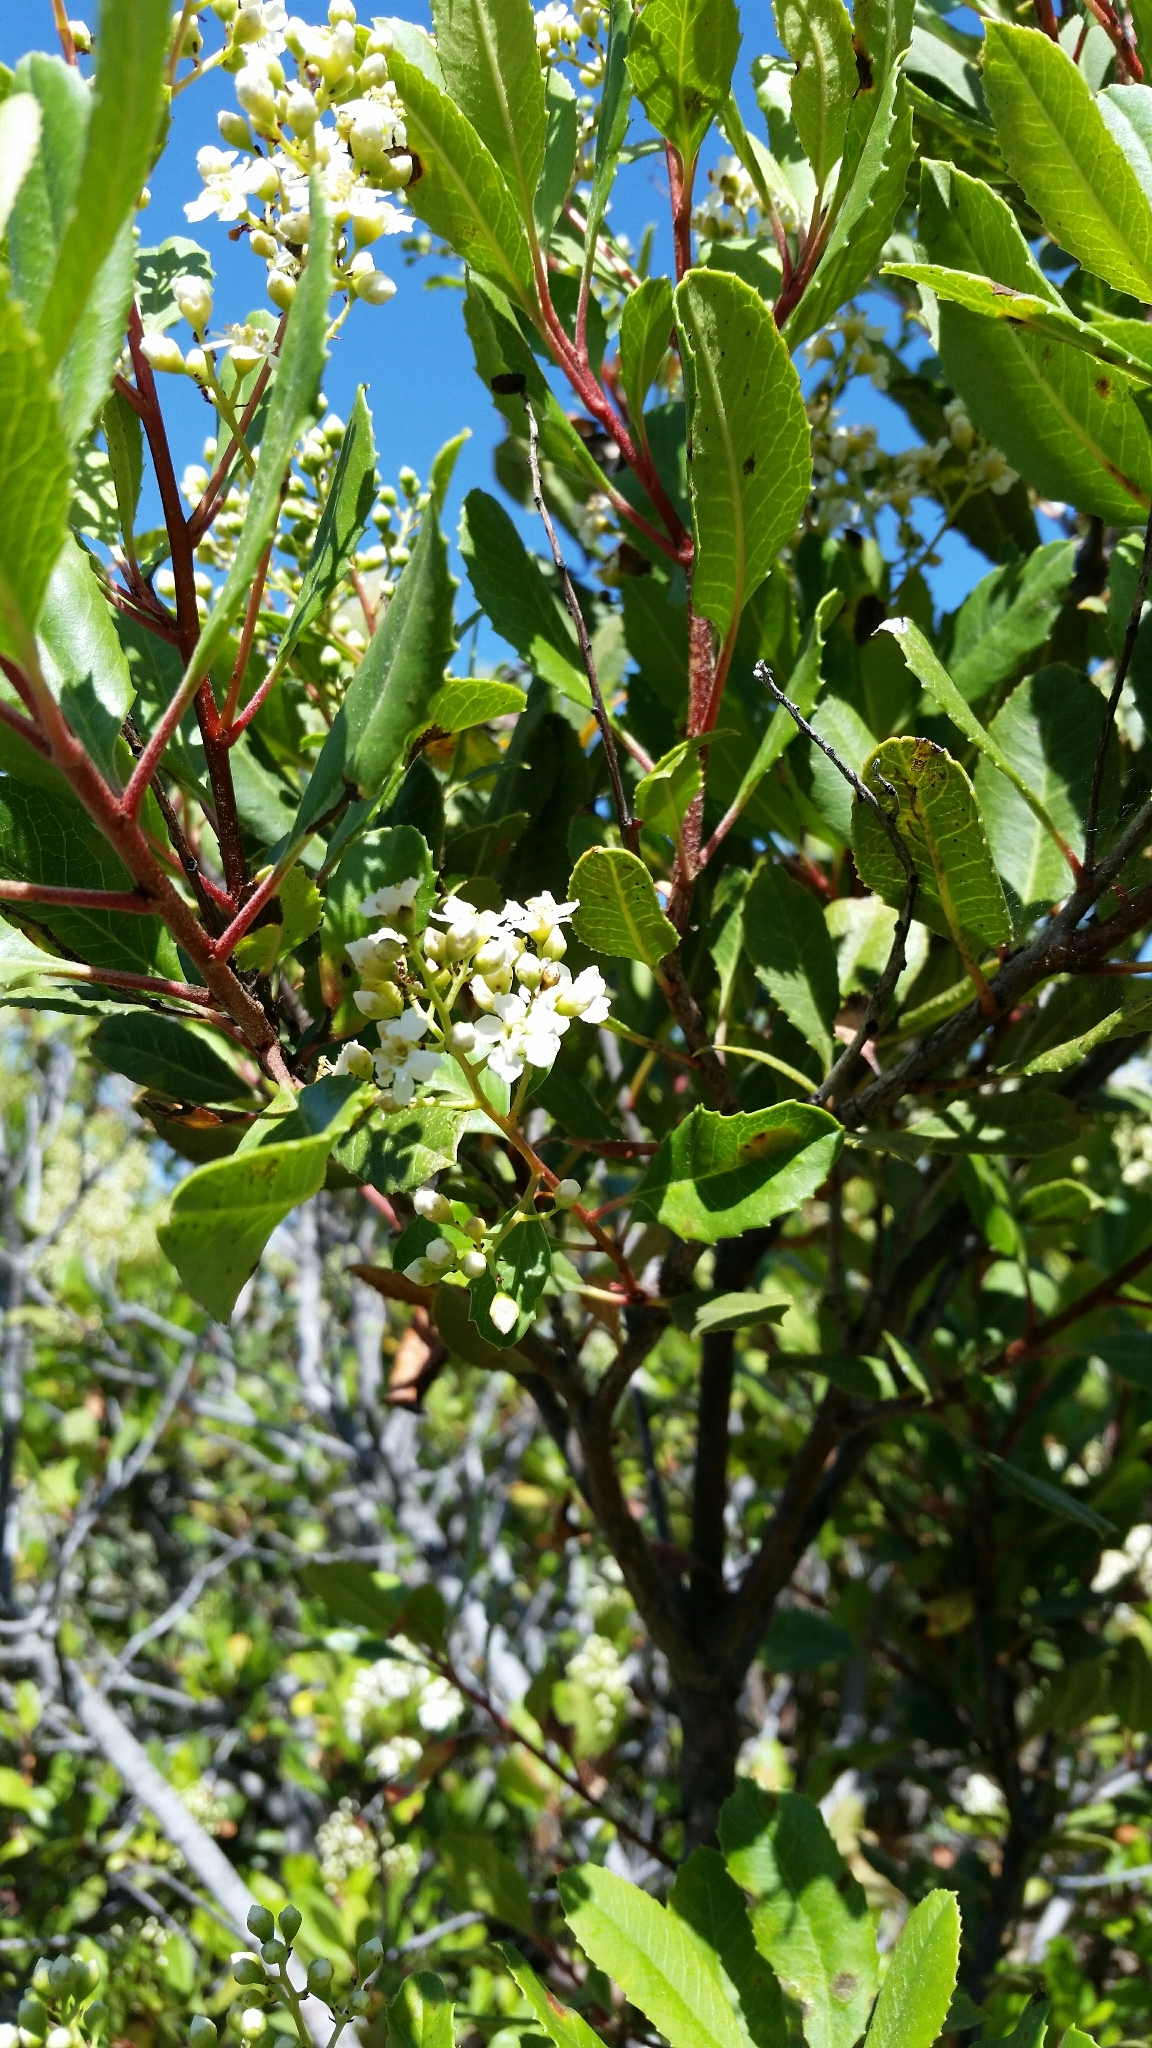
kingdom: Plantae
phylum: Tracheophyta
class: Magnoliopsida
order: Rosales
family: Rosaceae
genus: Heteromeles
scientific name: Heteromeles arbutifolia
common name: California-holly
